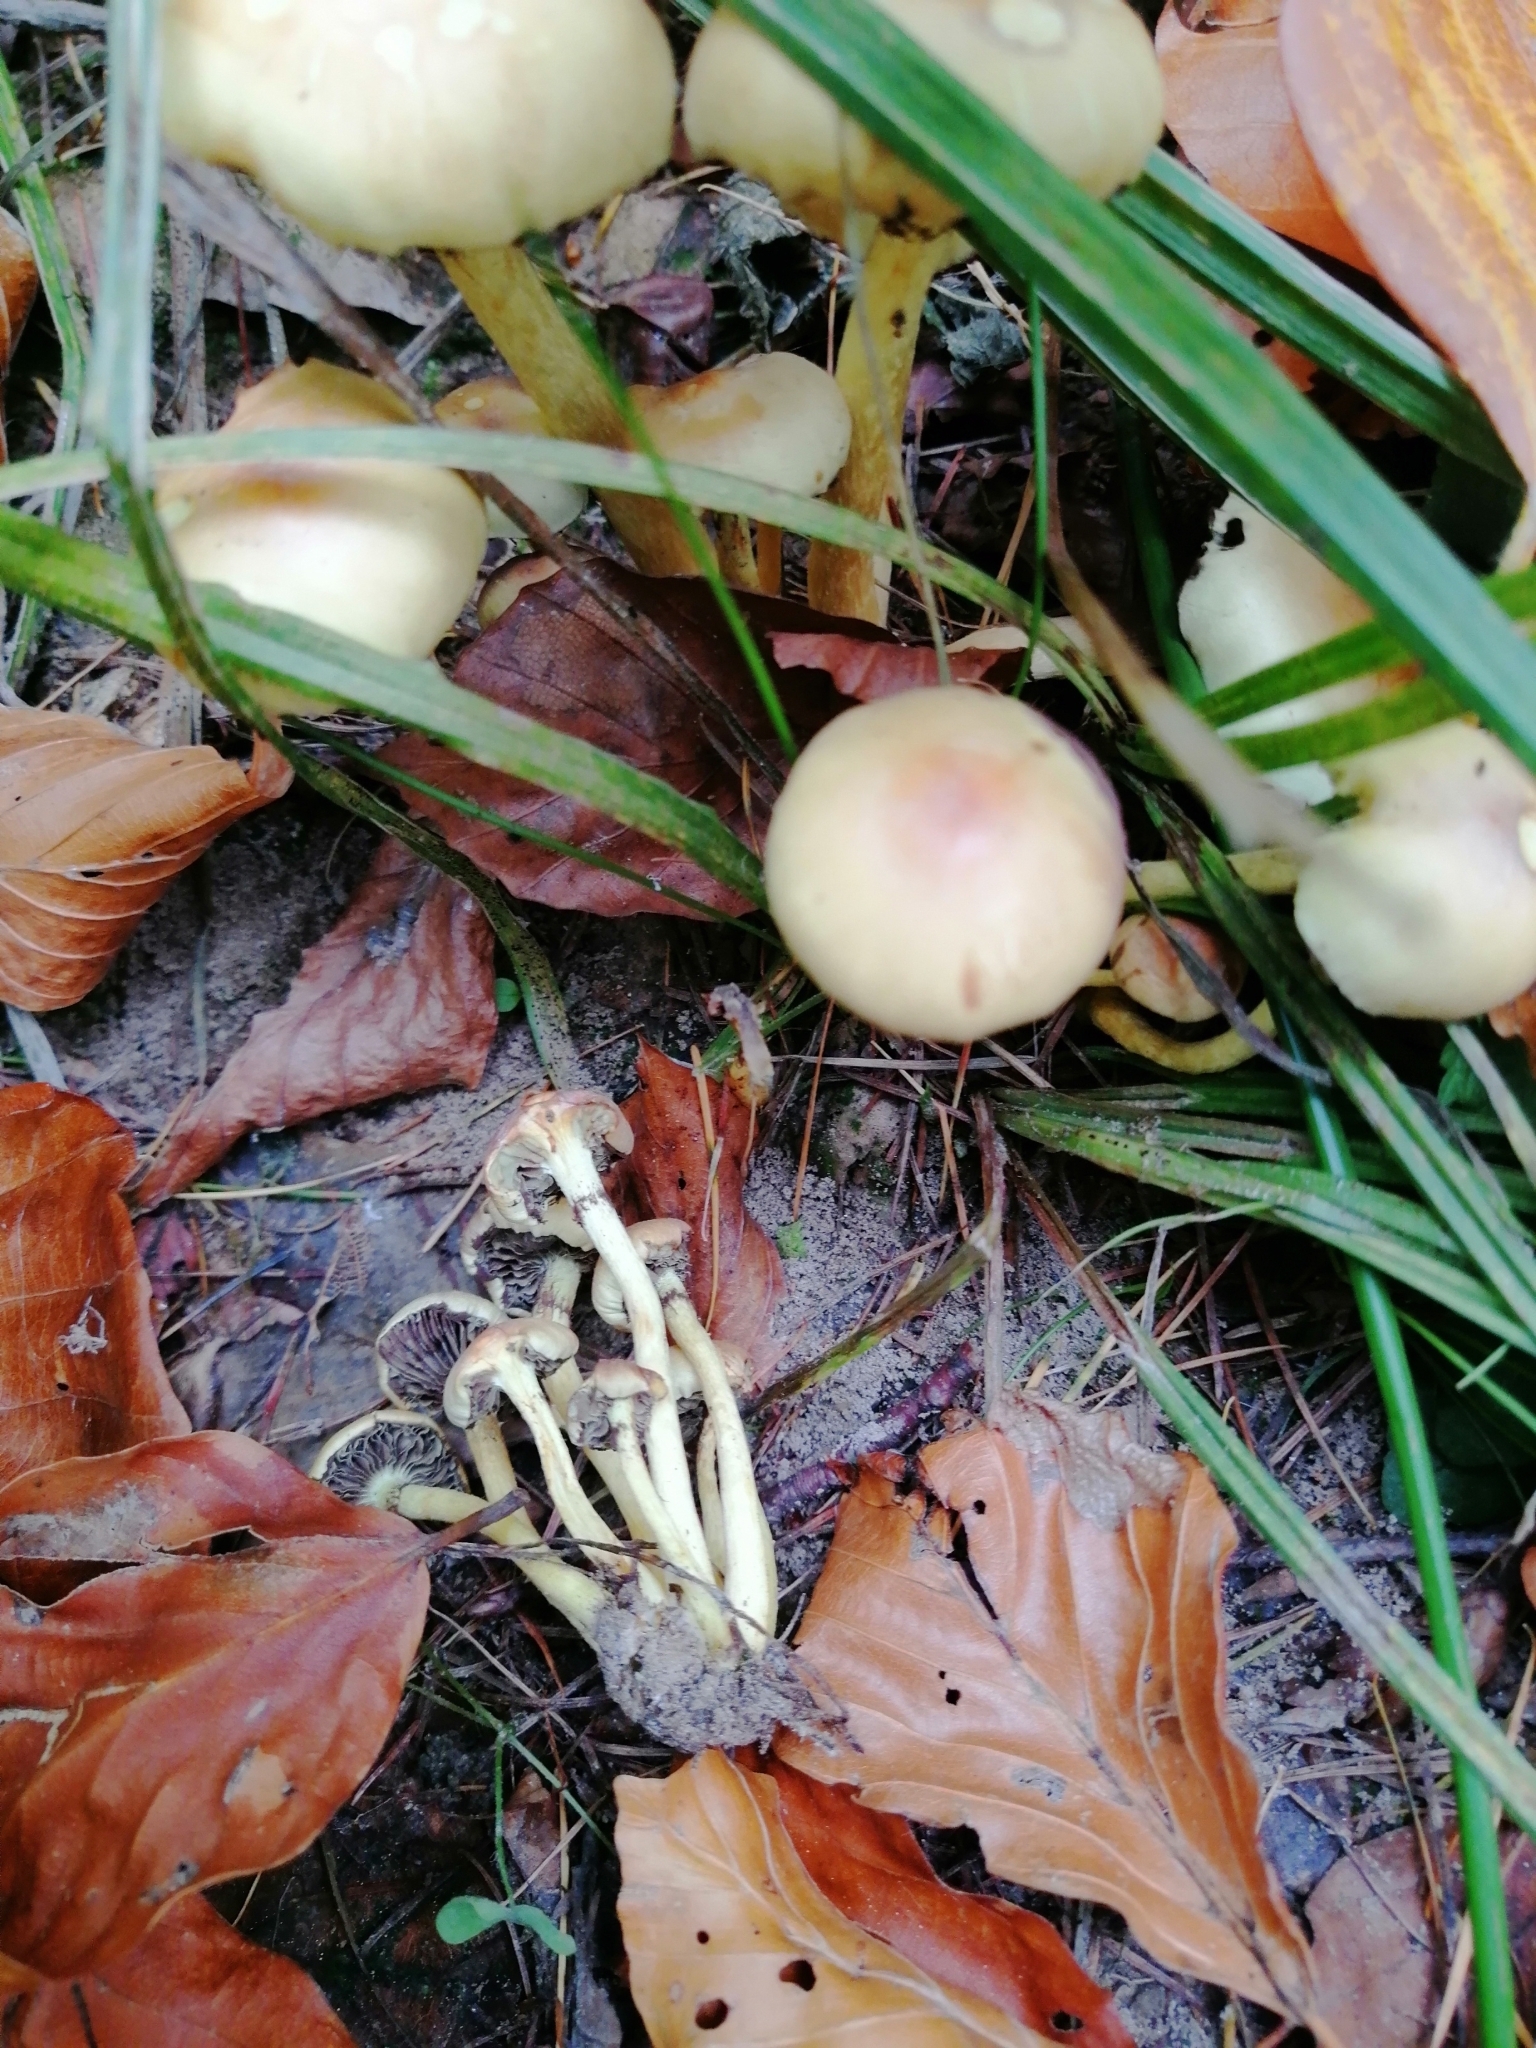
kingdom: Fungi
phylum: Basidiomycota
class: Agaricomycetes
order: Agaricales
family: Strophariaceae
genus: Hypholoma
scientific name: Hypholoma fasciculare
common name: Sulphur tuft
